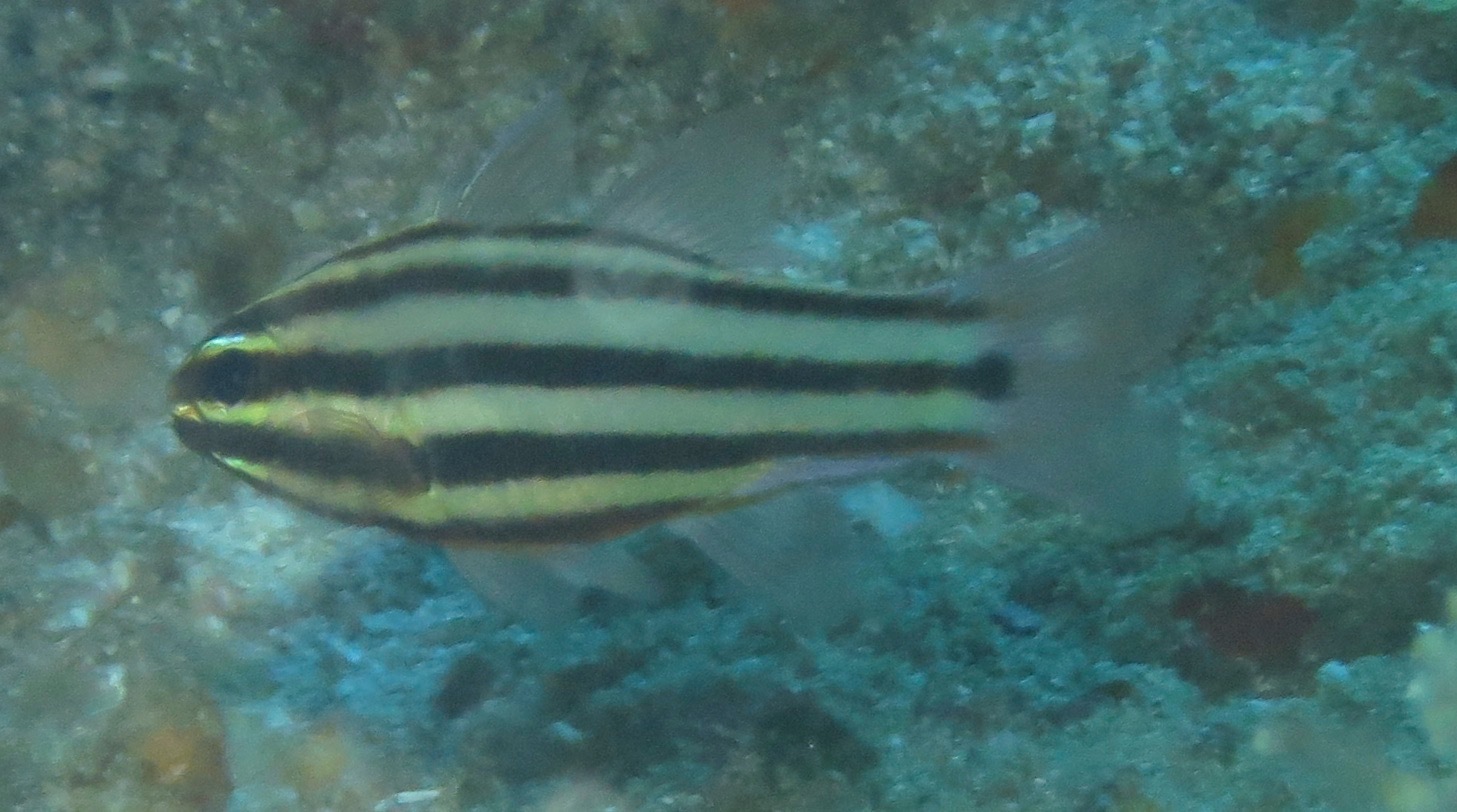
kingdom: Animalia
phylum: Chordata
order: Perciformes
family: Apogonidae
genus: Ostorhinchus
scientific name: Ostorhinchus angustatus
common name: Narrow-striped cardinalfish
